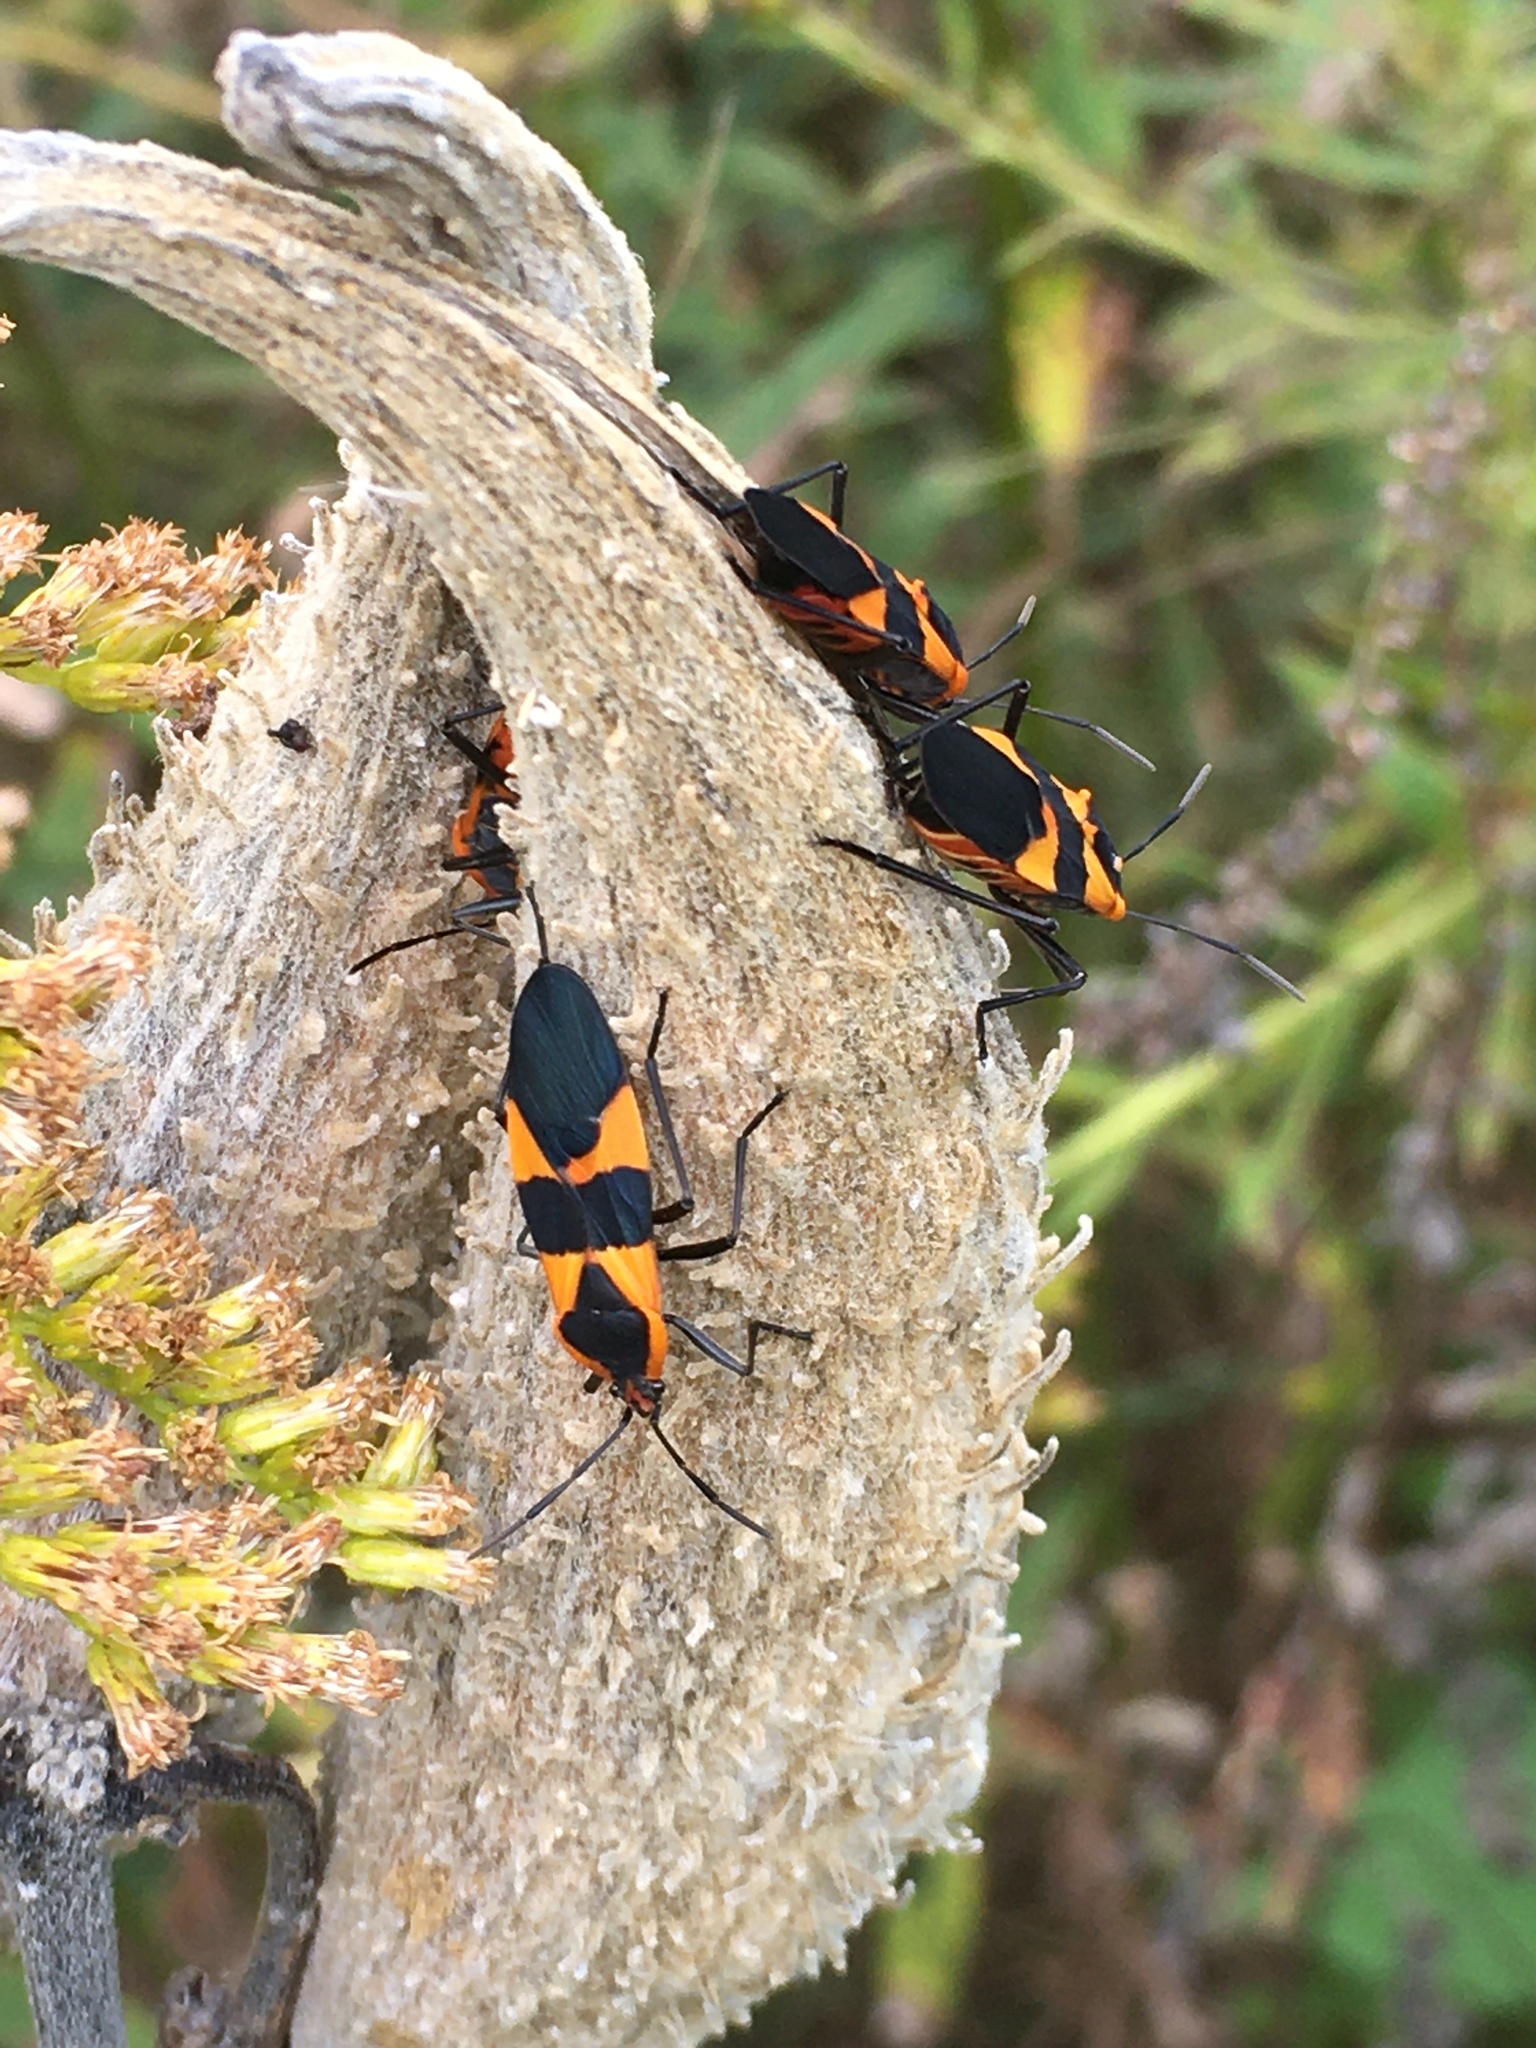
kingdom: Animalia
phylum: Arthropoda
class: Insecta
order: Hemiptera
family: Lygaeidae
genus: Oncopeltus
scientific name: Oncopeltus fasciatus
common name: Large milkweed bug
